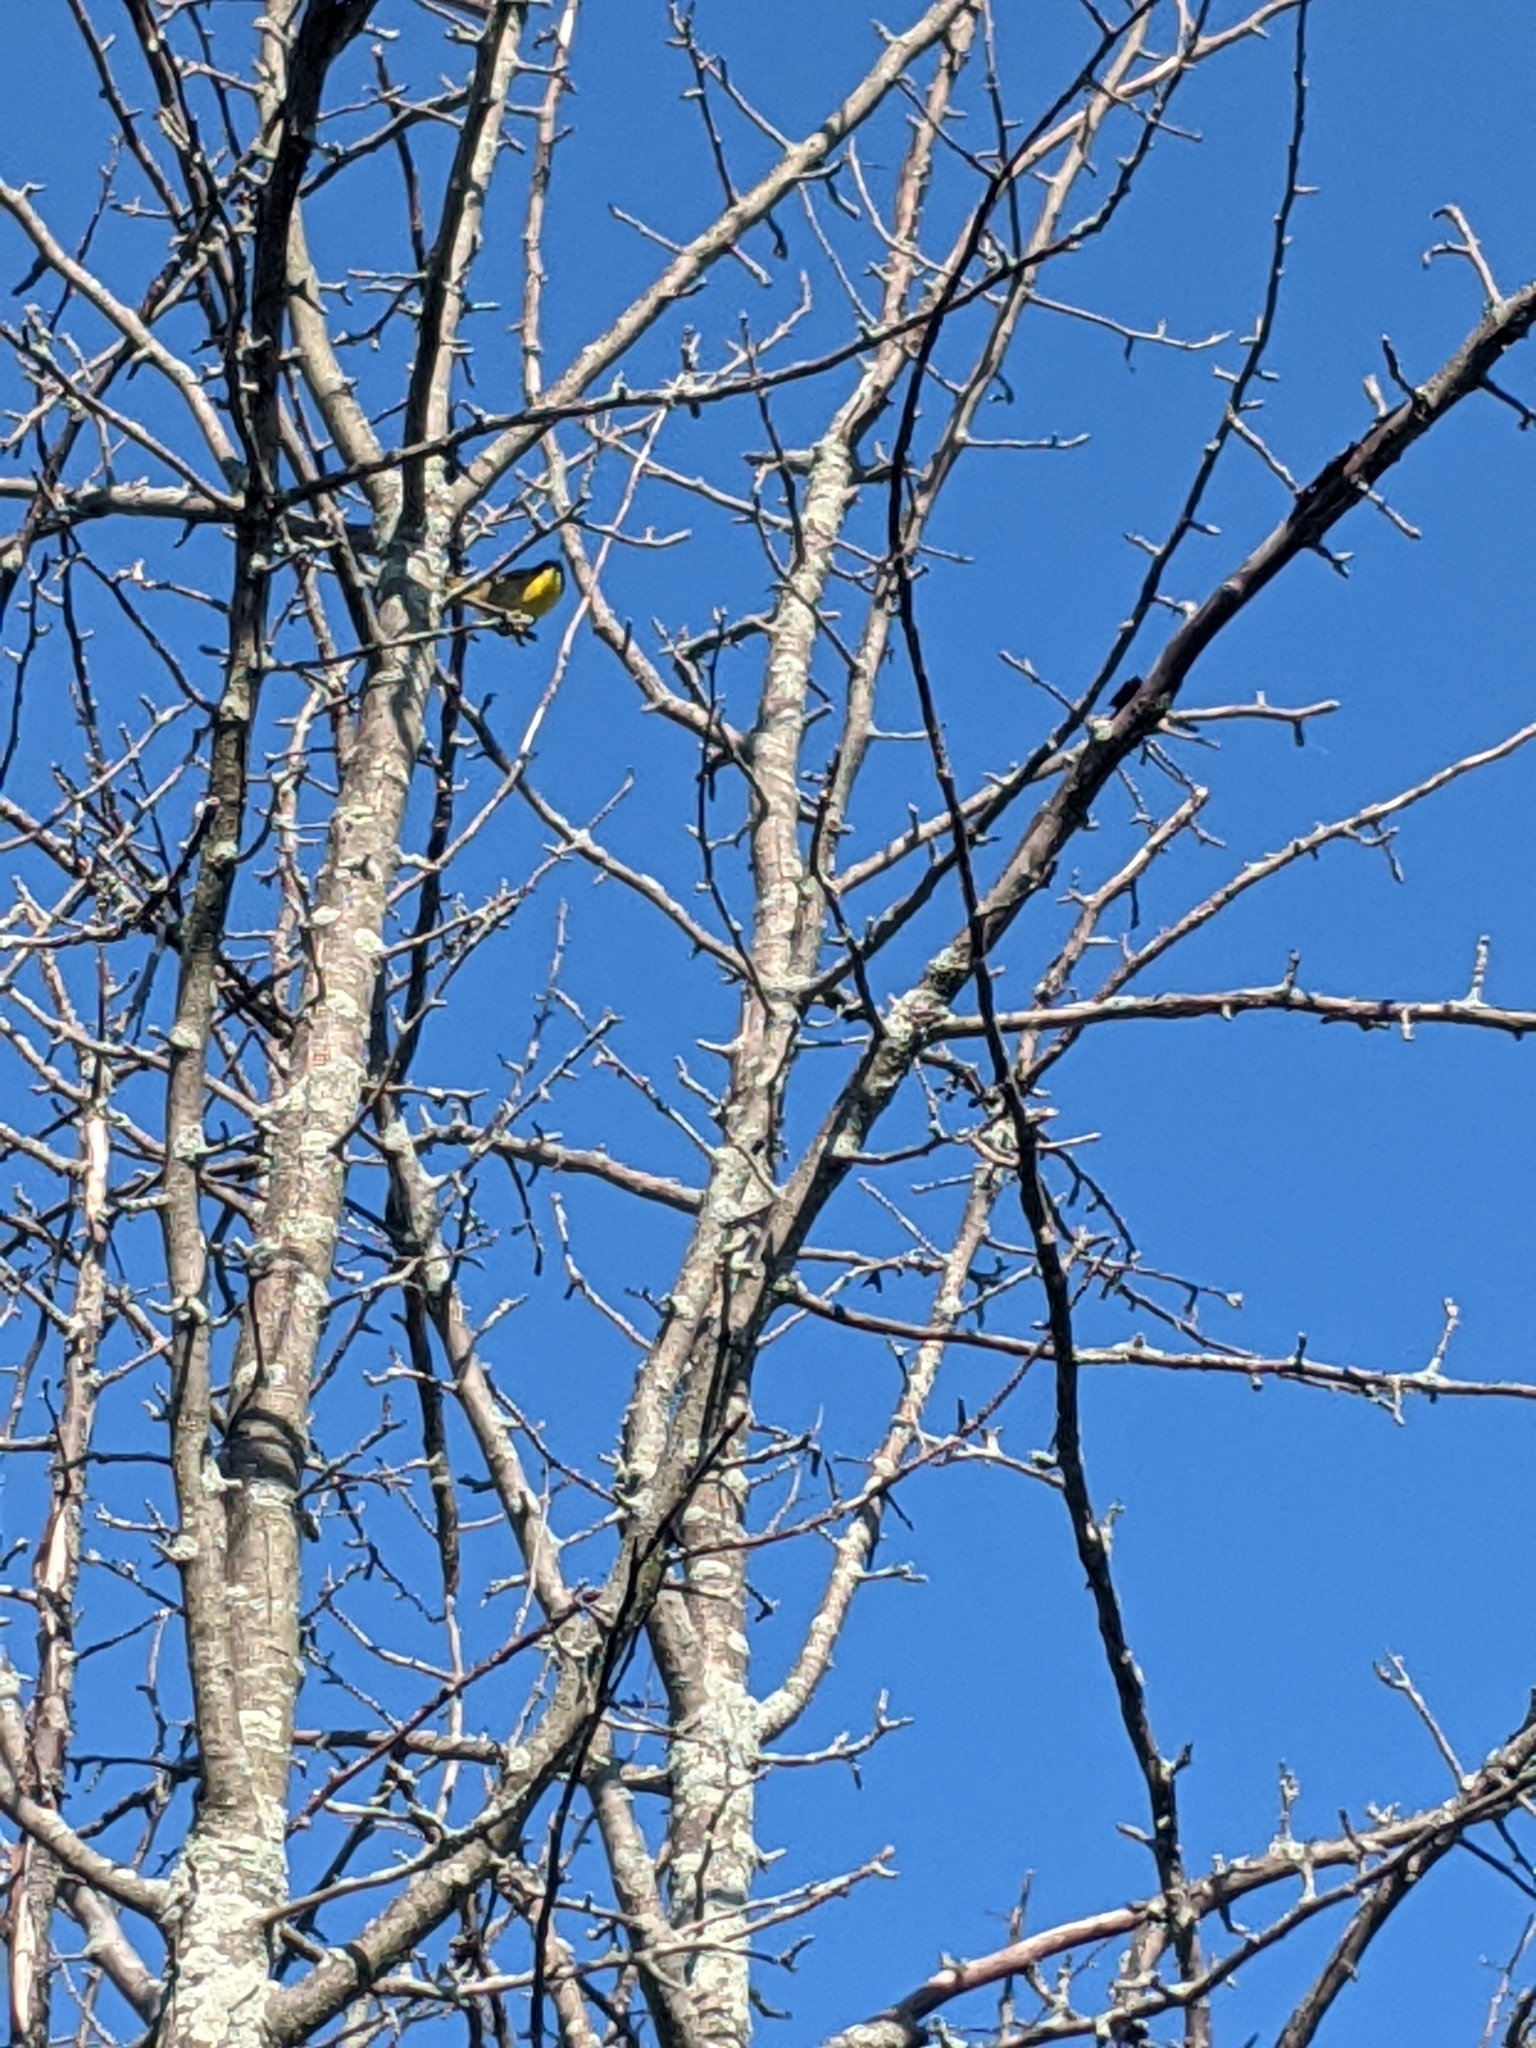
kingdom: Animalia
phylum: Chordata
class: Aves
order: Passeriformes
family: Parulidae
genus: Geothlypis
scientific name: Geothlypis trichas
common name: Common yellowthroat
